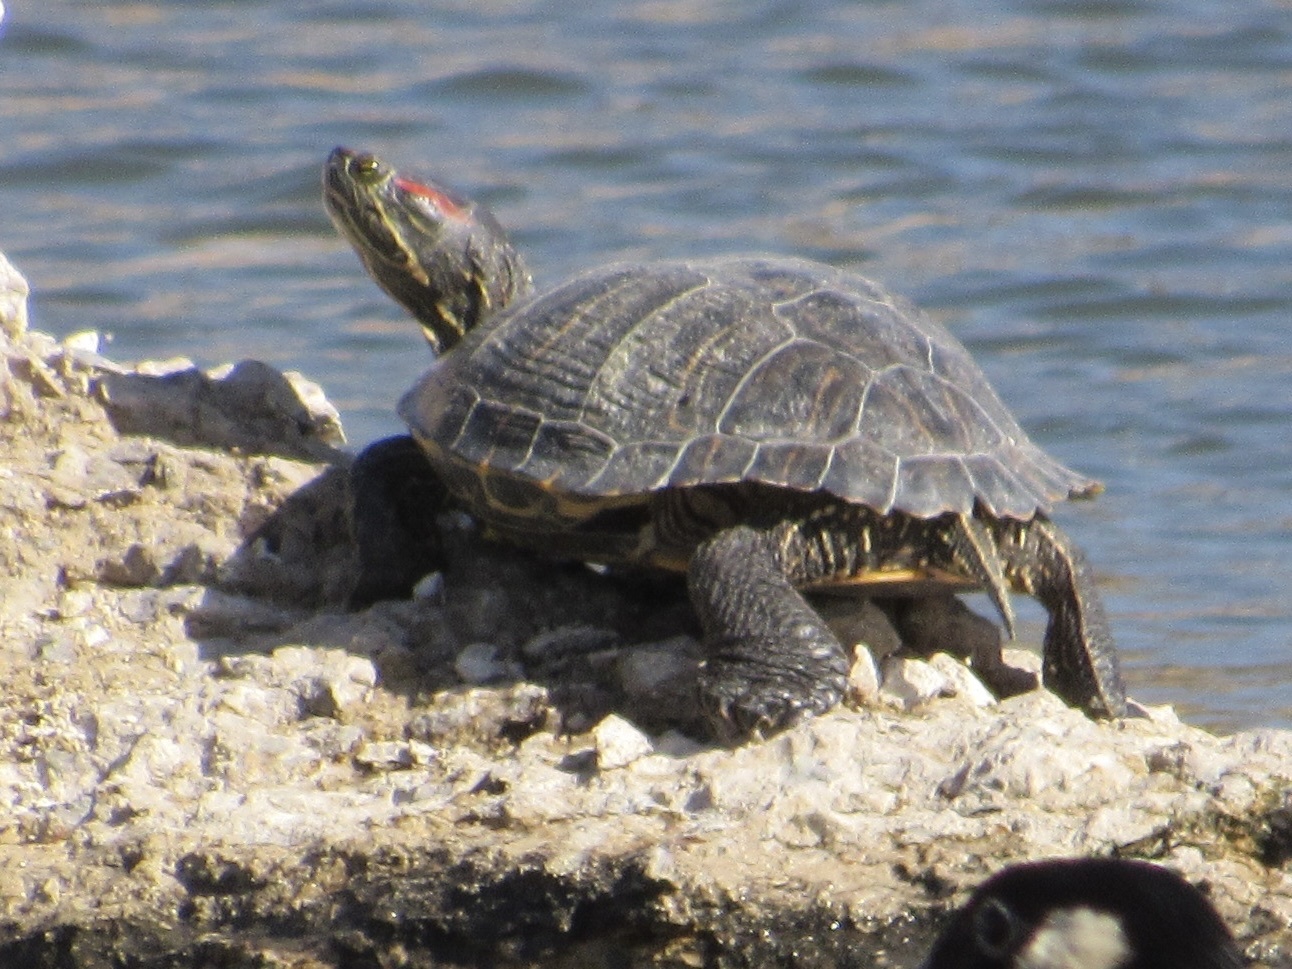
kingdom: Animalia
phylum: Chordata
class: Testudines
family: Emydidae
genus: Trachemys
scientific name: Trachemys scripta
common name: Slider
